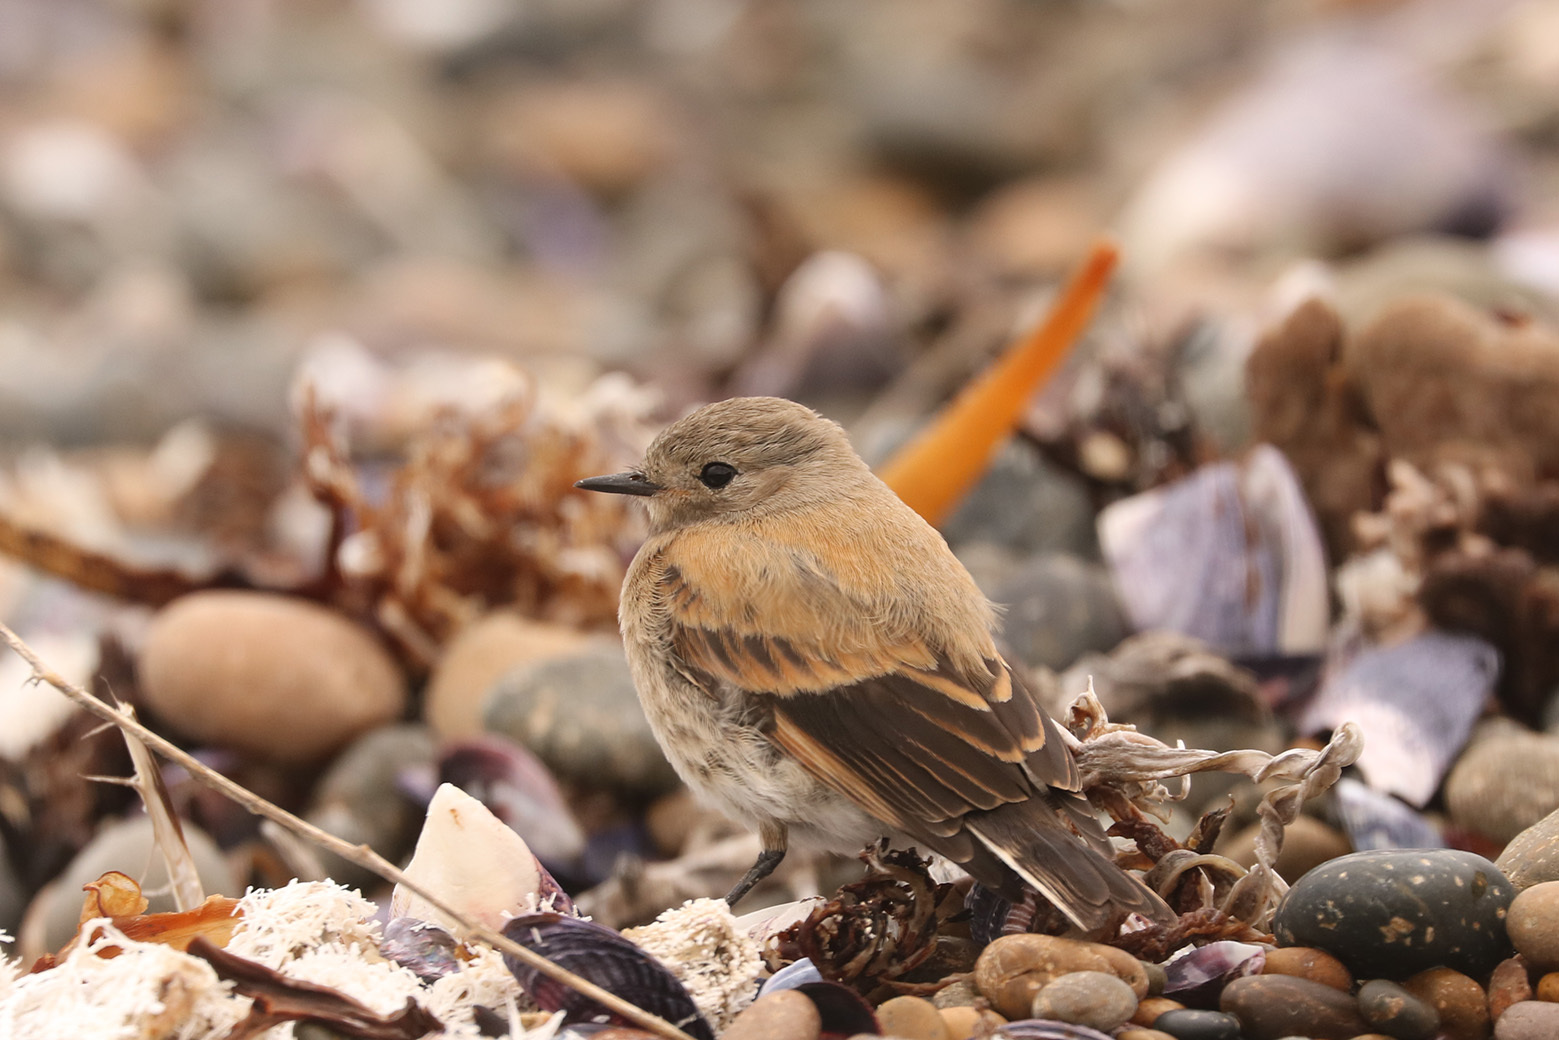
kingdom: Animalia
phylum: Chordata
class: Aves
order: Passeriformes
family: Tyrannidae
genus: Lessonia
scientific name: Lessonia rufa
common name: Austral negrito
